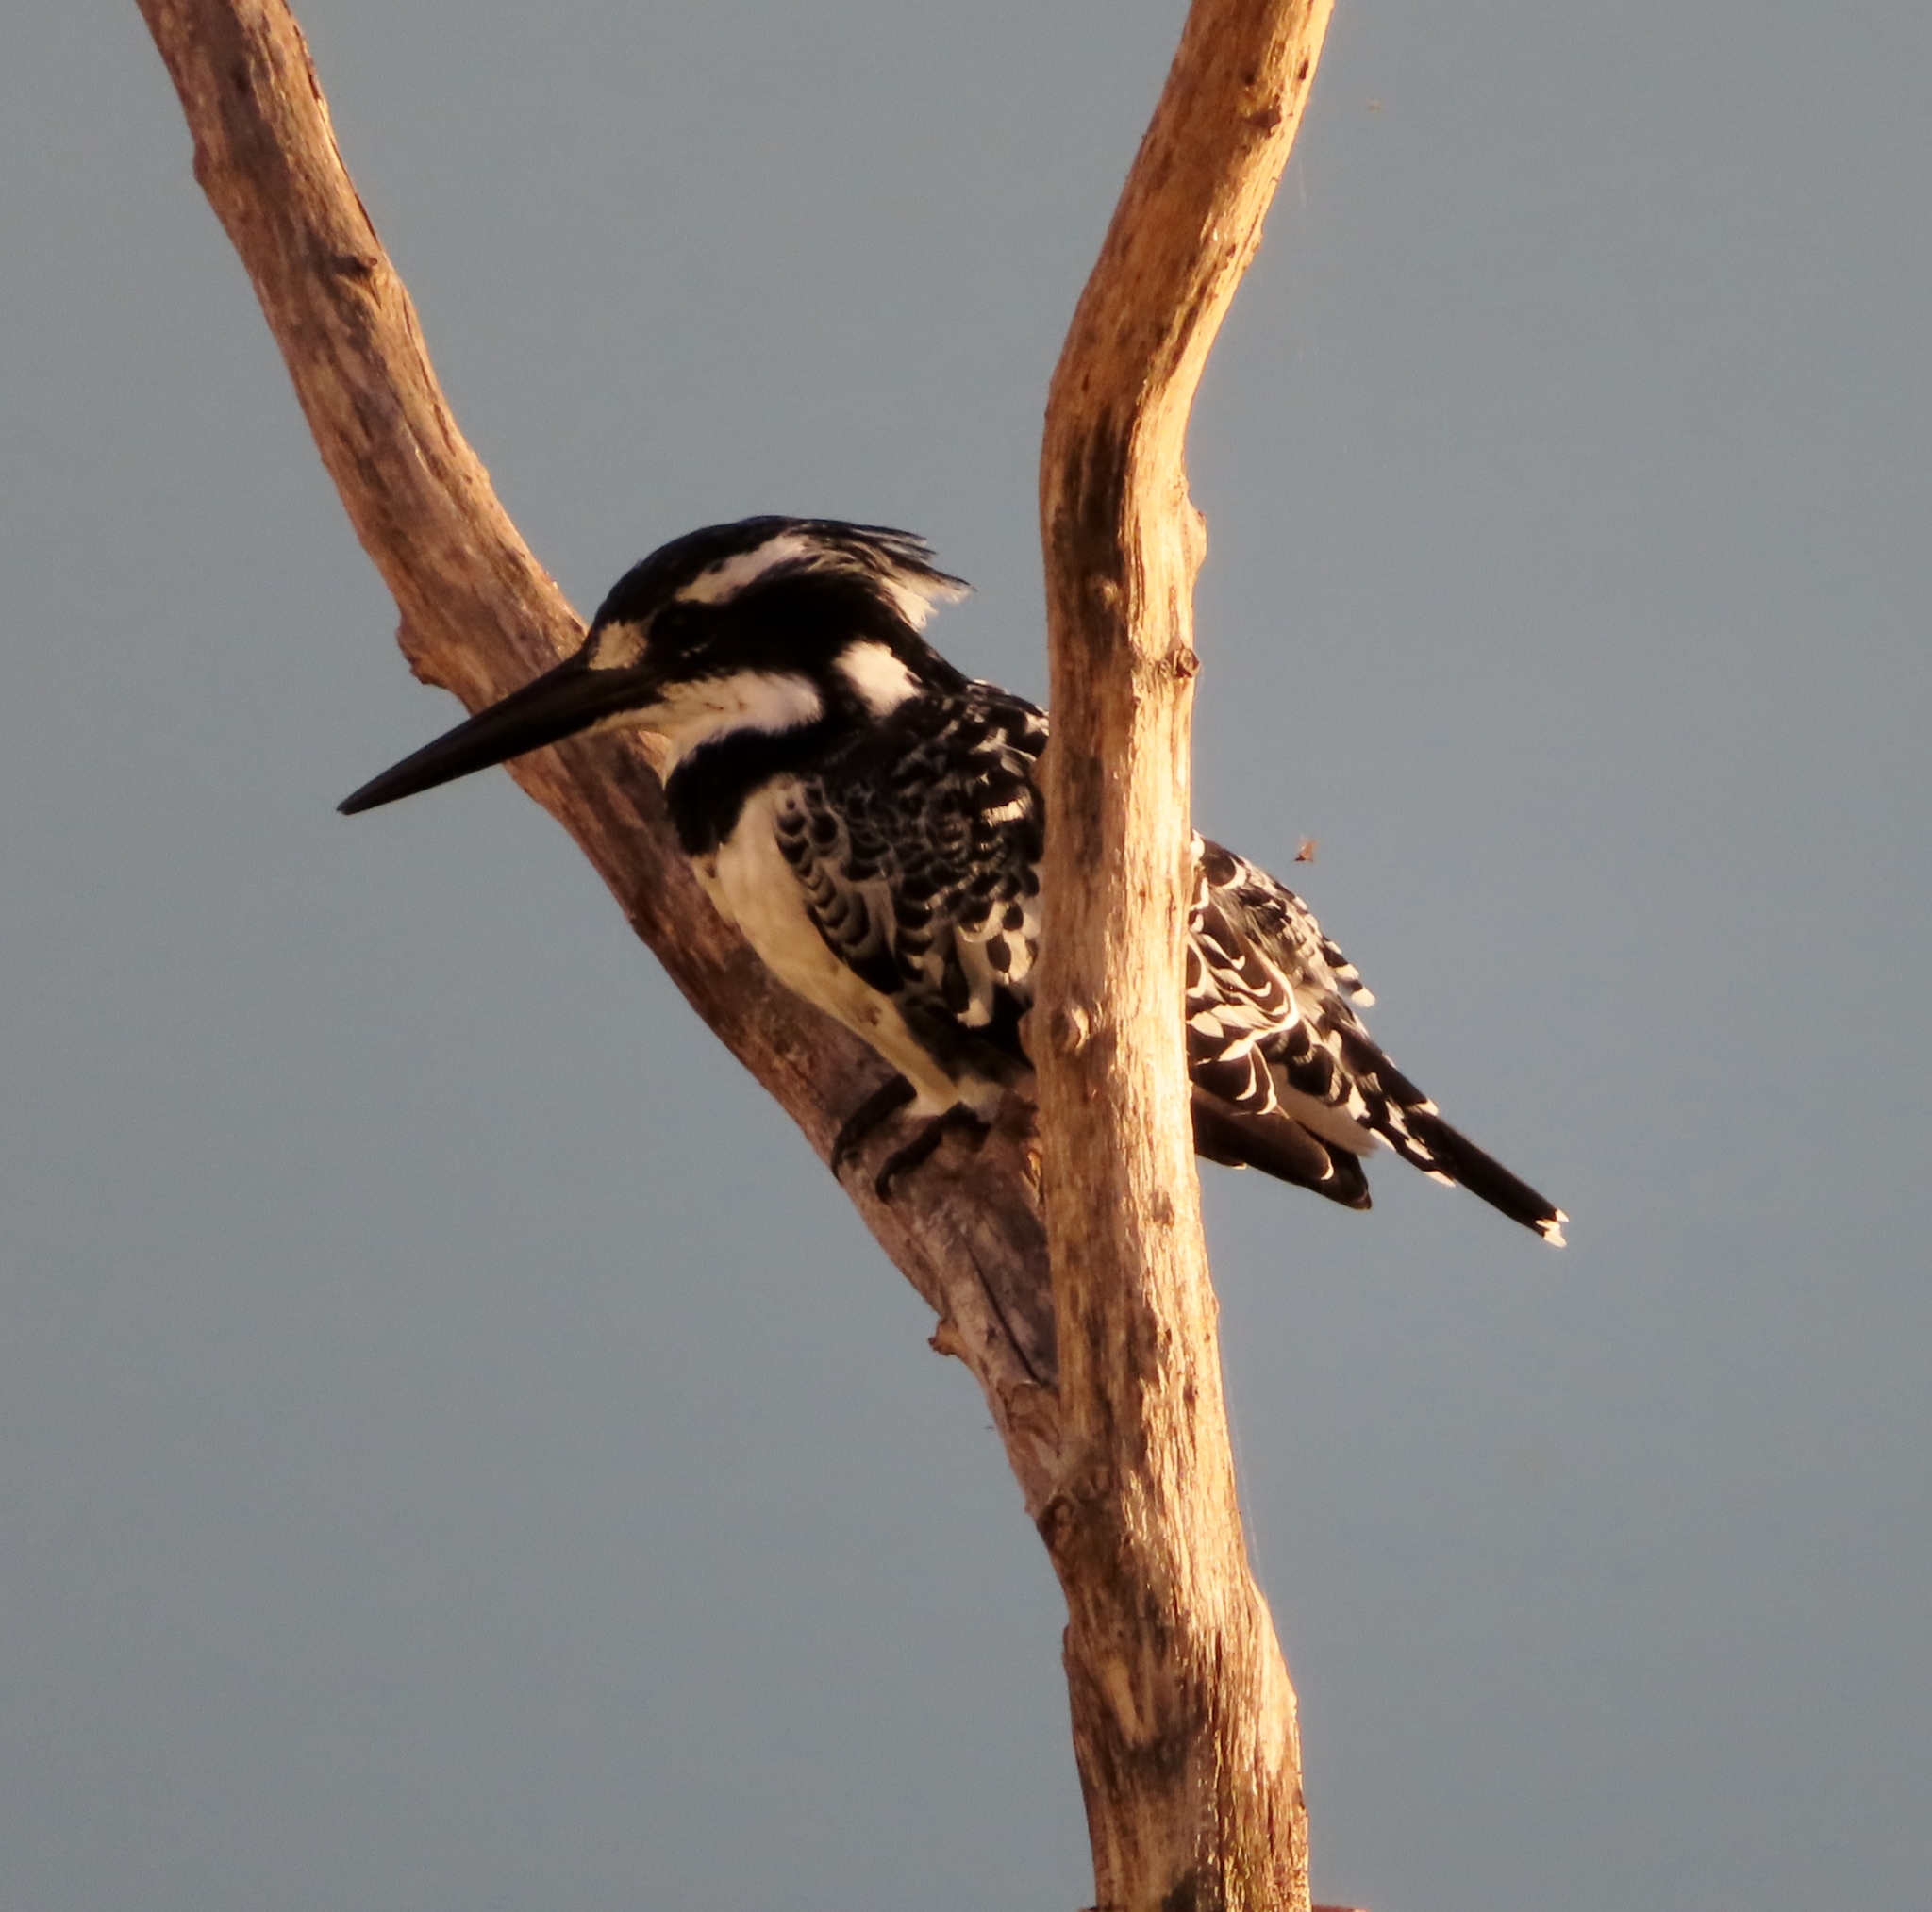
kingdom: Animalia
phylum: Chordata
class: Aves
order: Coraciiformes
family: Alcedinidae
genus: Ceryle
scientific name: Ceryle rudis
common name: Pied kingfisher
